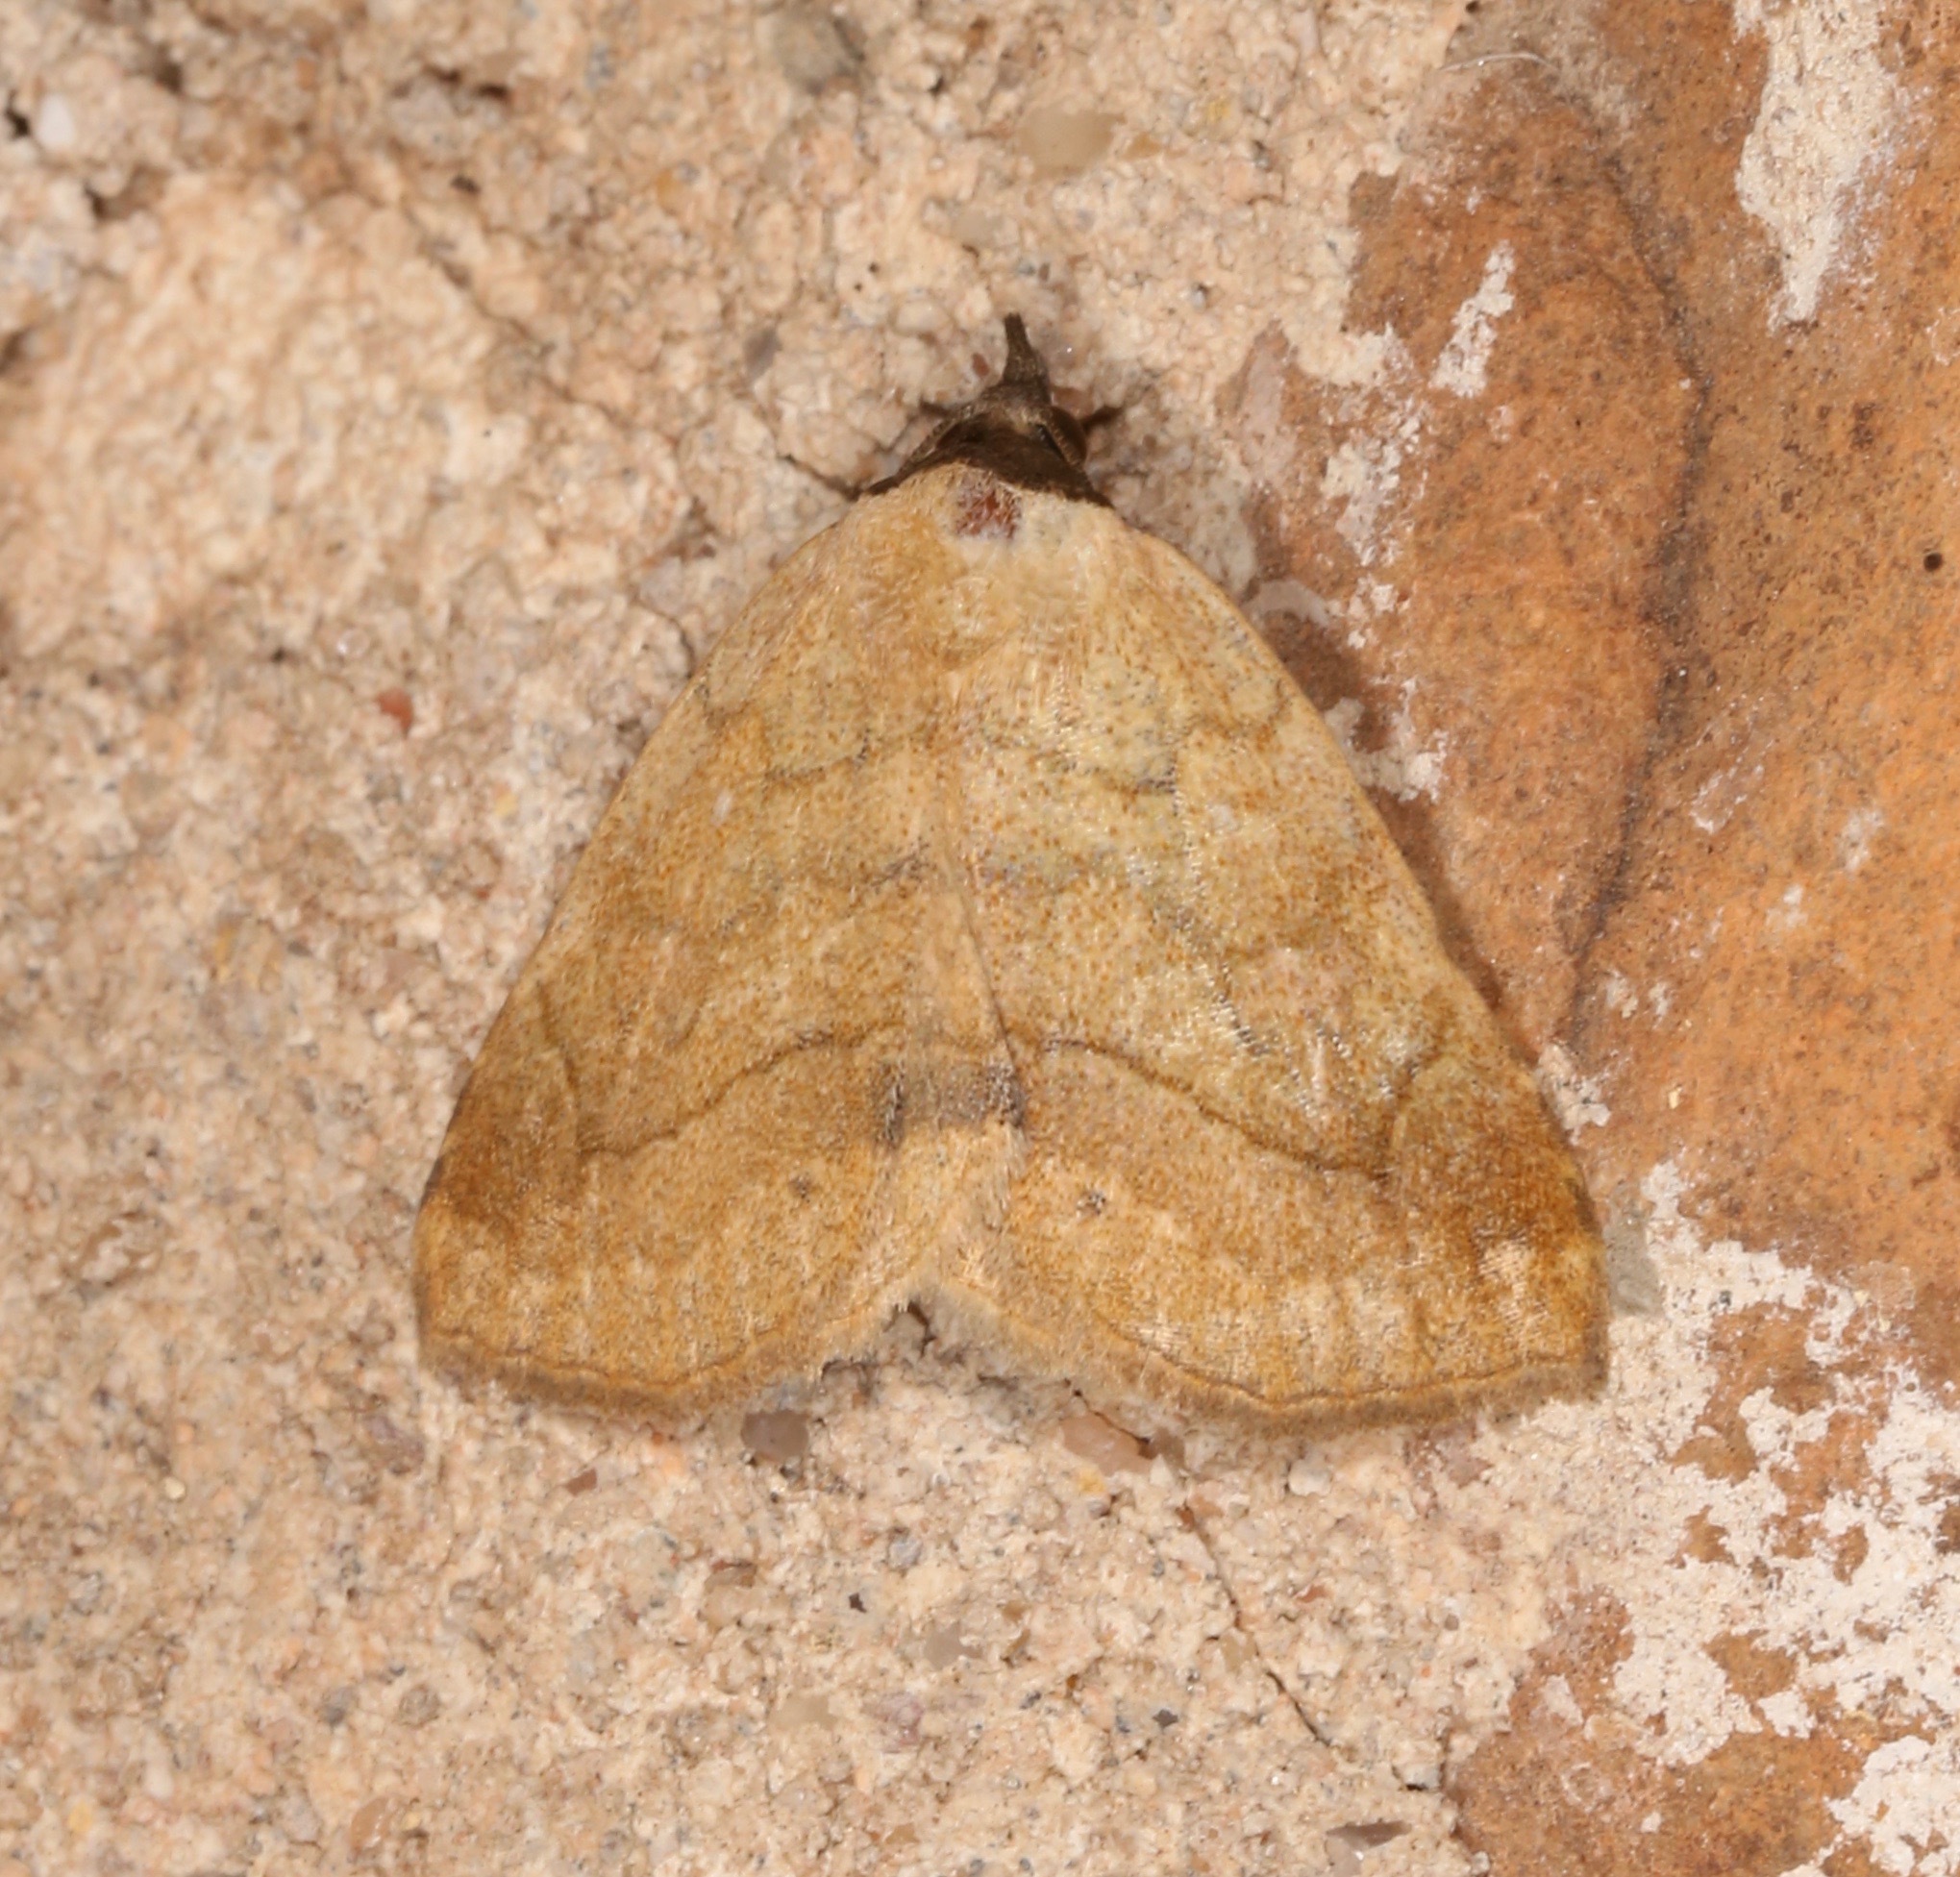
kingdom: Animalia
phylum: Arthropoda
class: Insecta
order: Lepidoptera
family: Erebidae
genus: Isogona
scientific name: Isogona punctipennis
